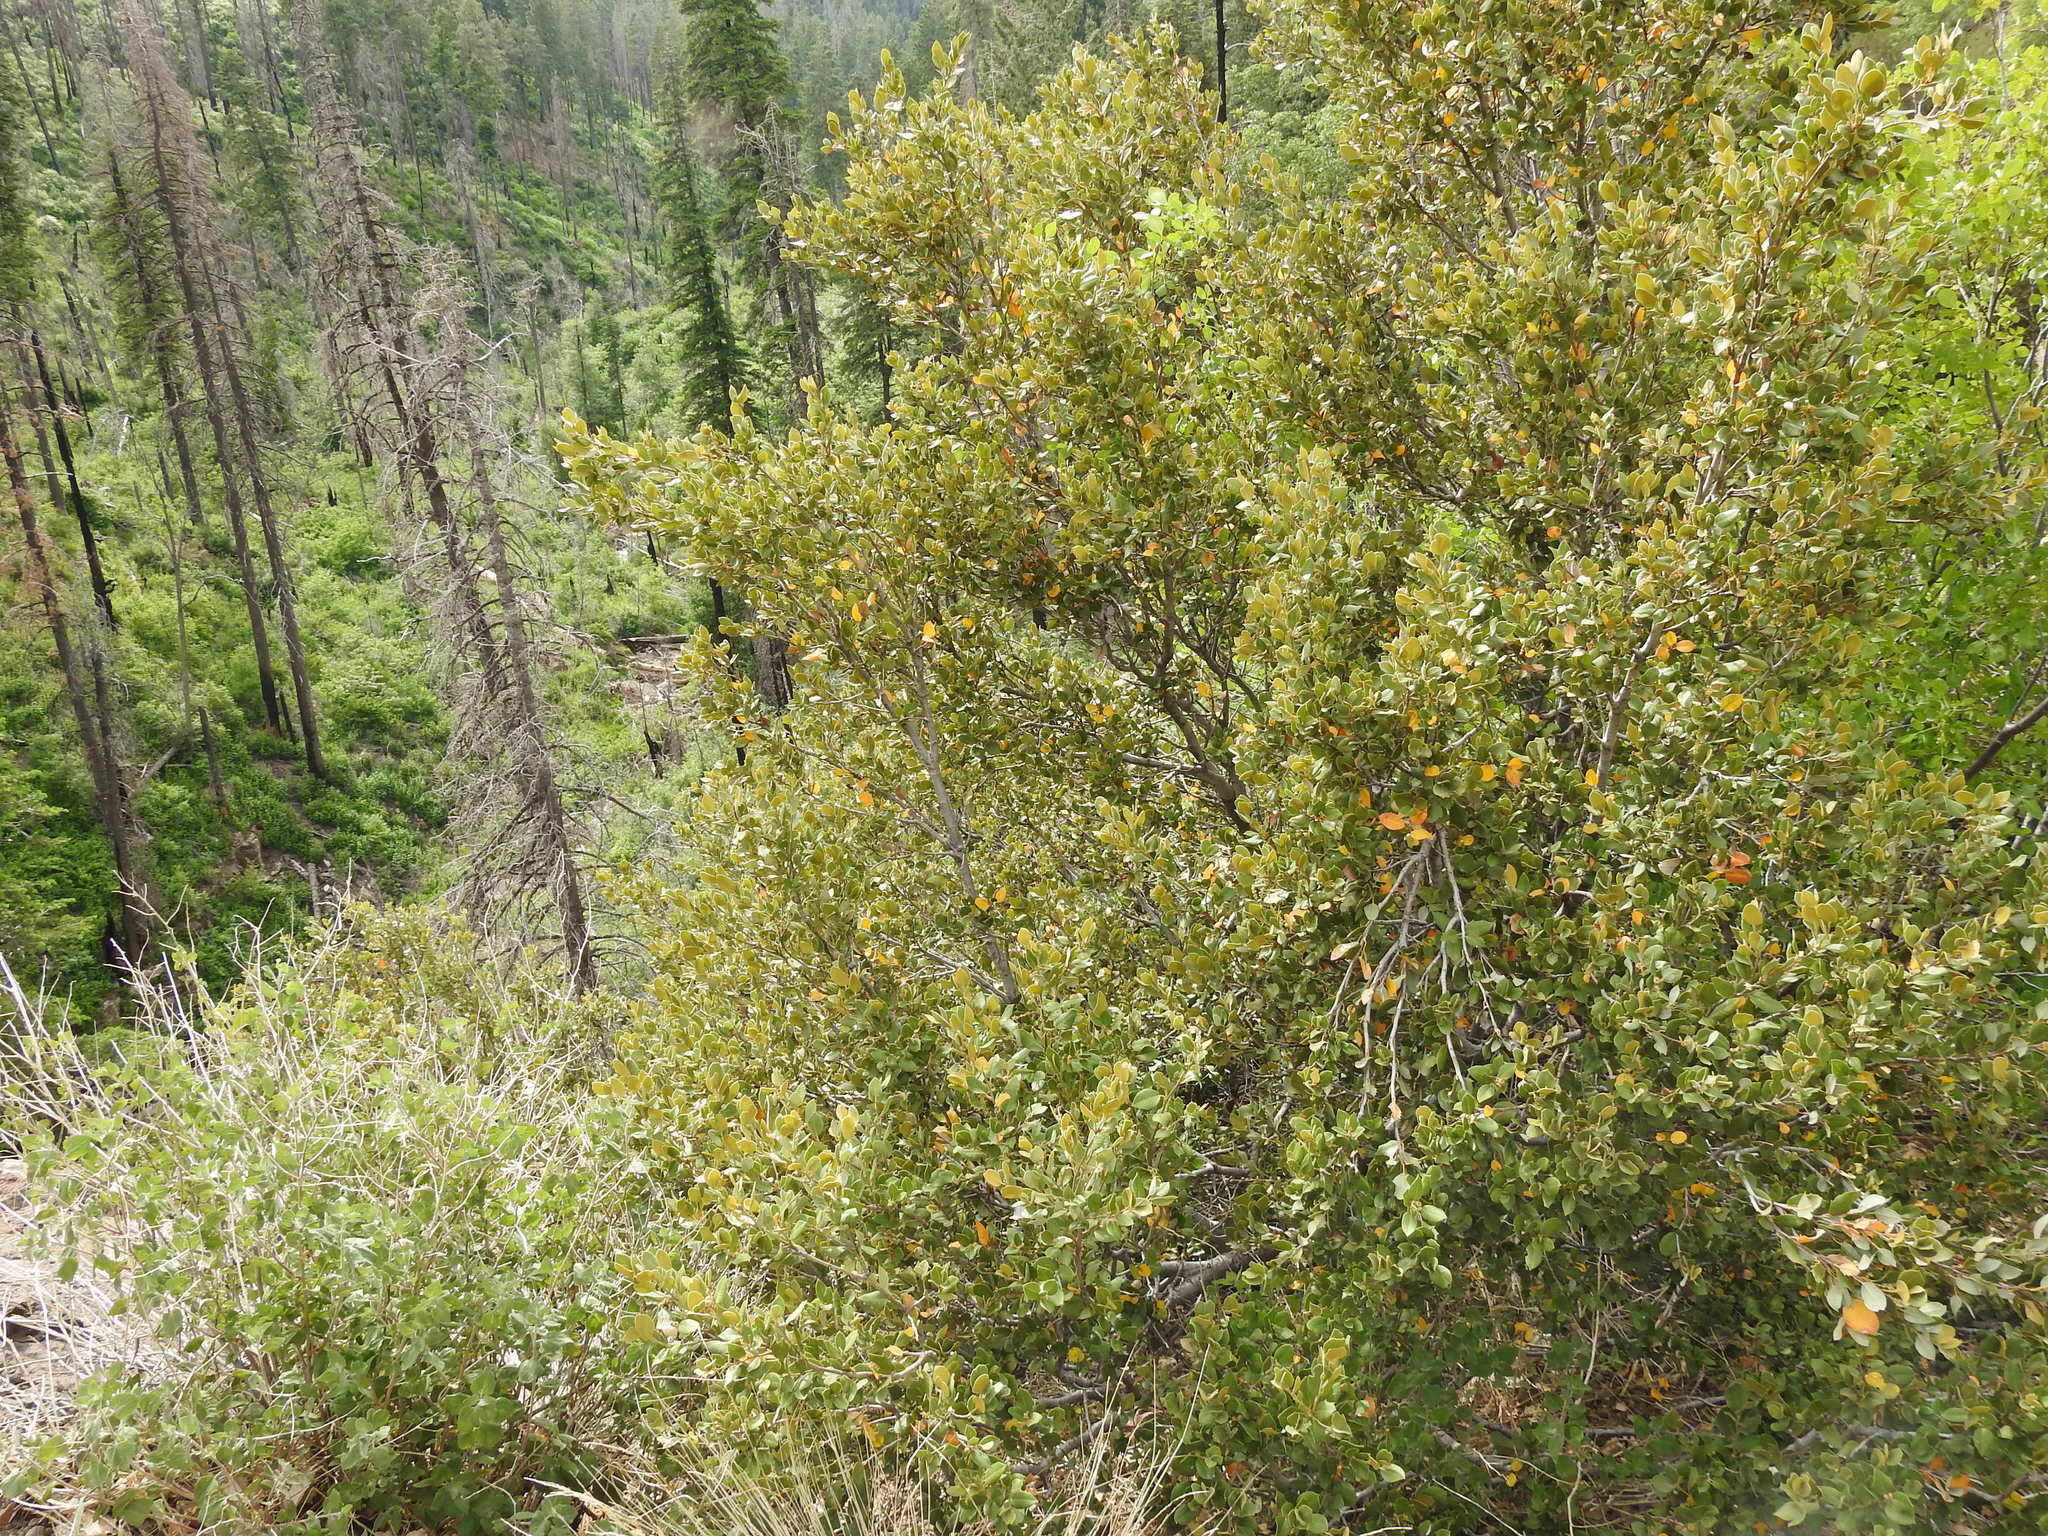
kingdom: Plantae
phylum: Tracheophyta
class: Magnoliopsida
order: Fagales
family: Fagaceae
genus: Quercus
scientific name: Quercus chrysolepis
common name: Canyon live oak
